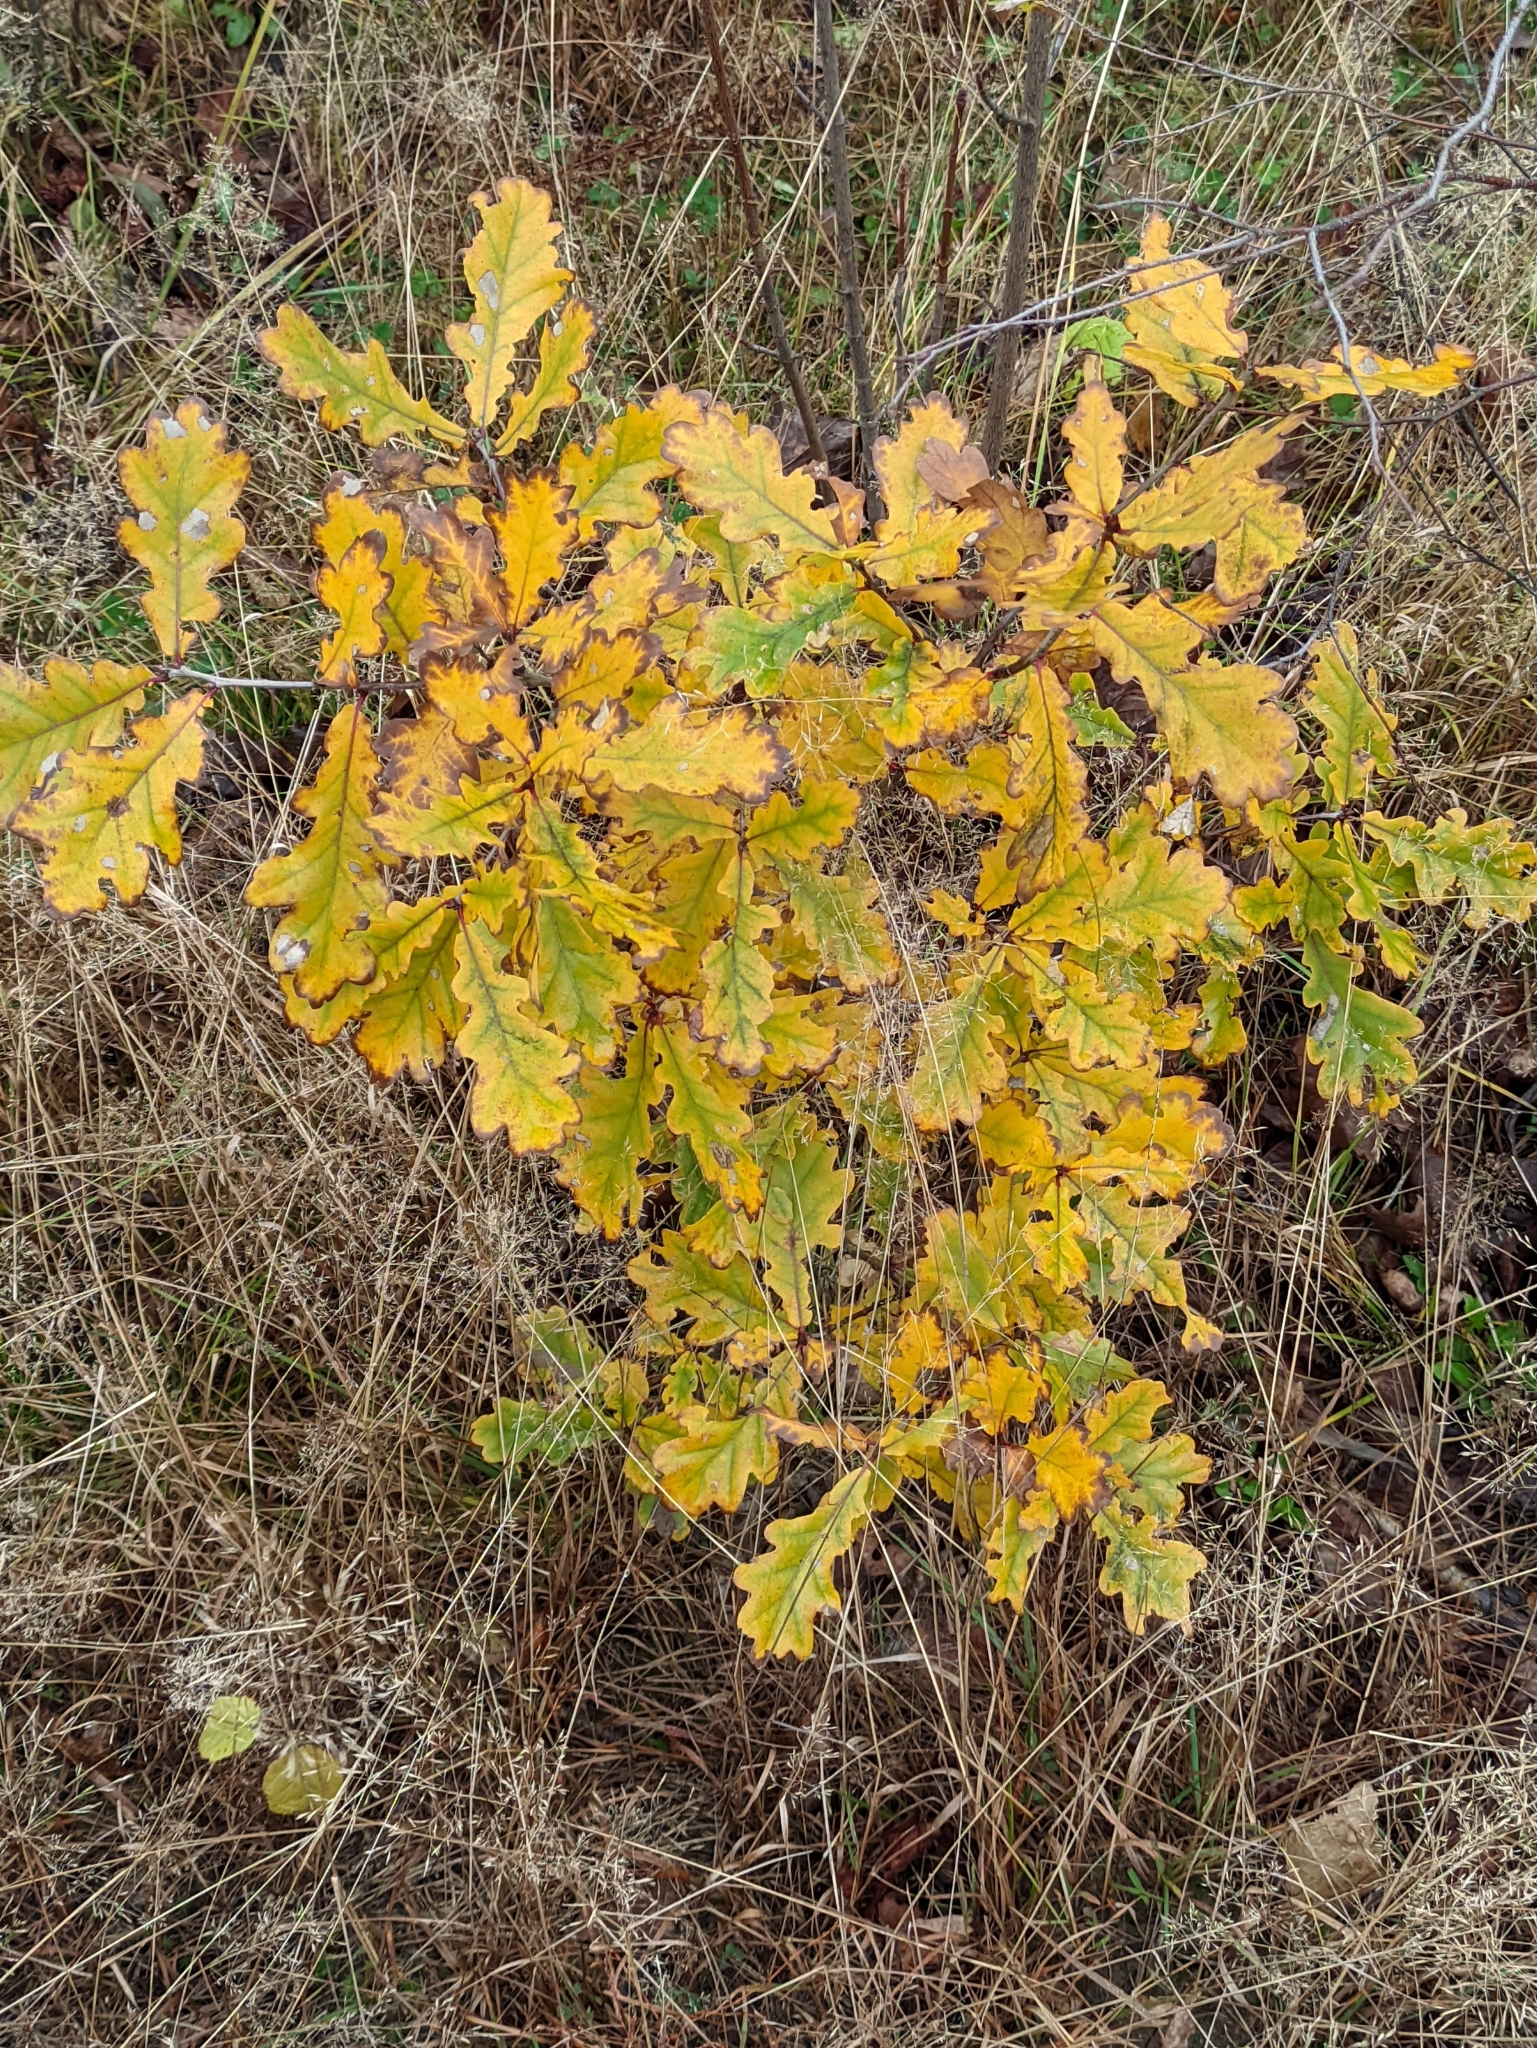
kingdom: Plantae
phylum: Tracheophyta
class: Magnoliopsida
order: Fagales
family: Fagaceae
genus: Quercus
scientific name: Quercus robur
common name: Pedunculate oak
